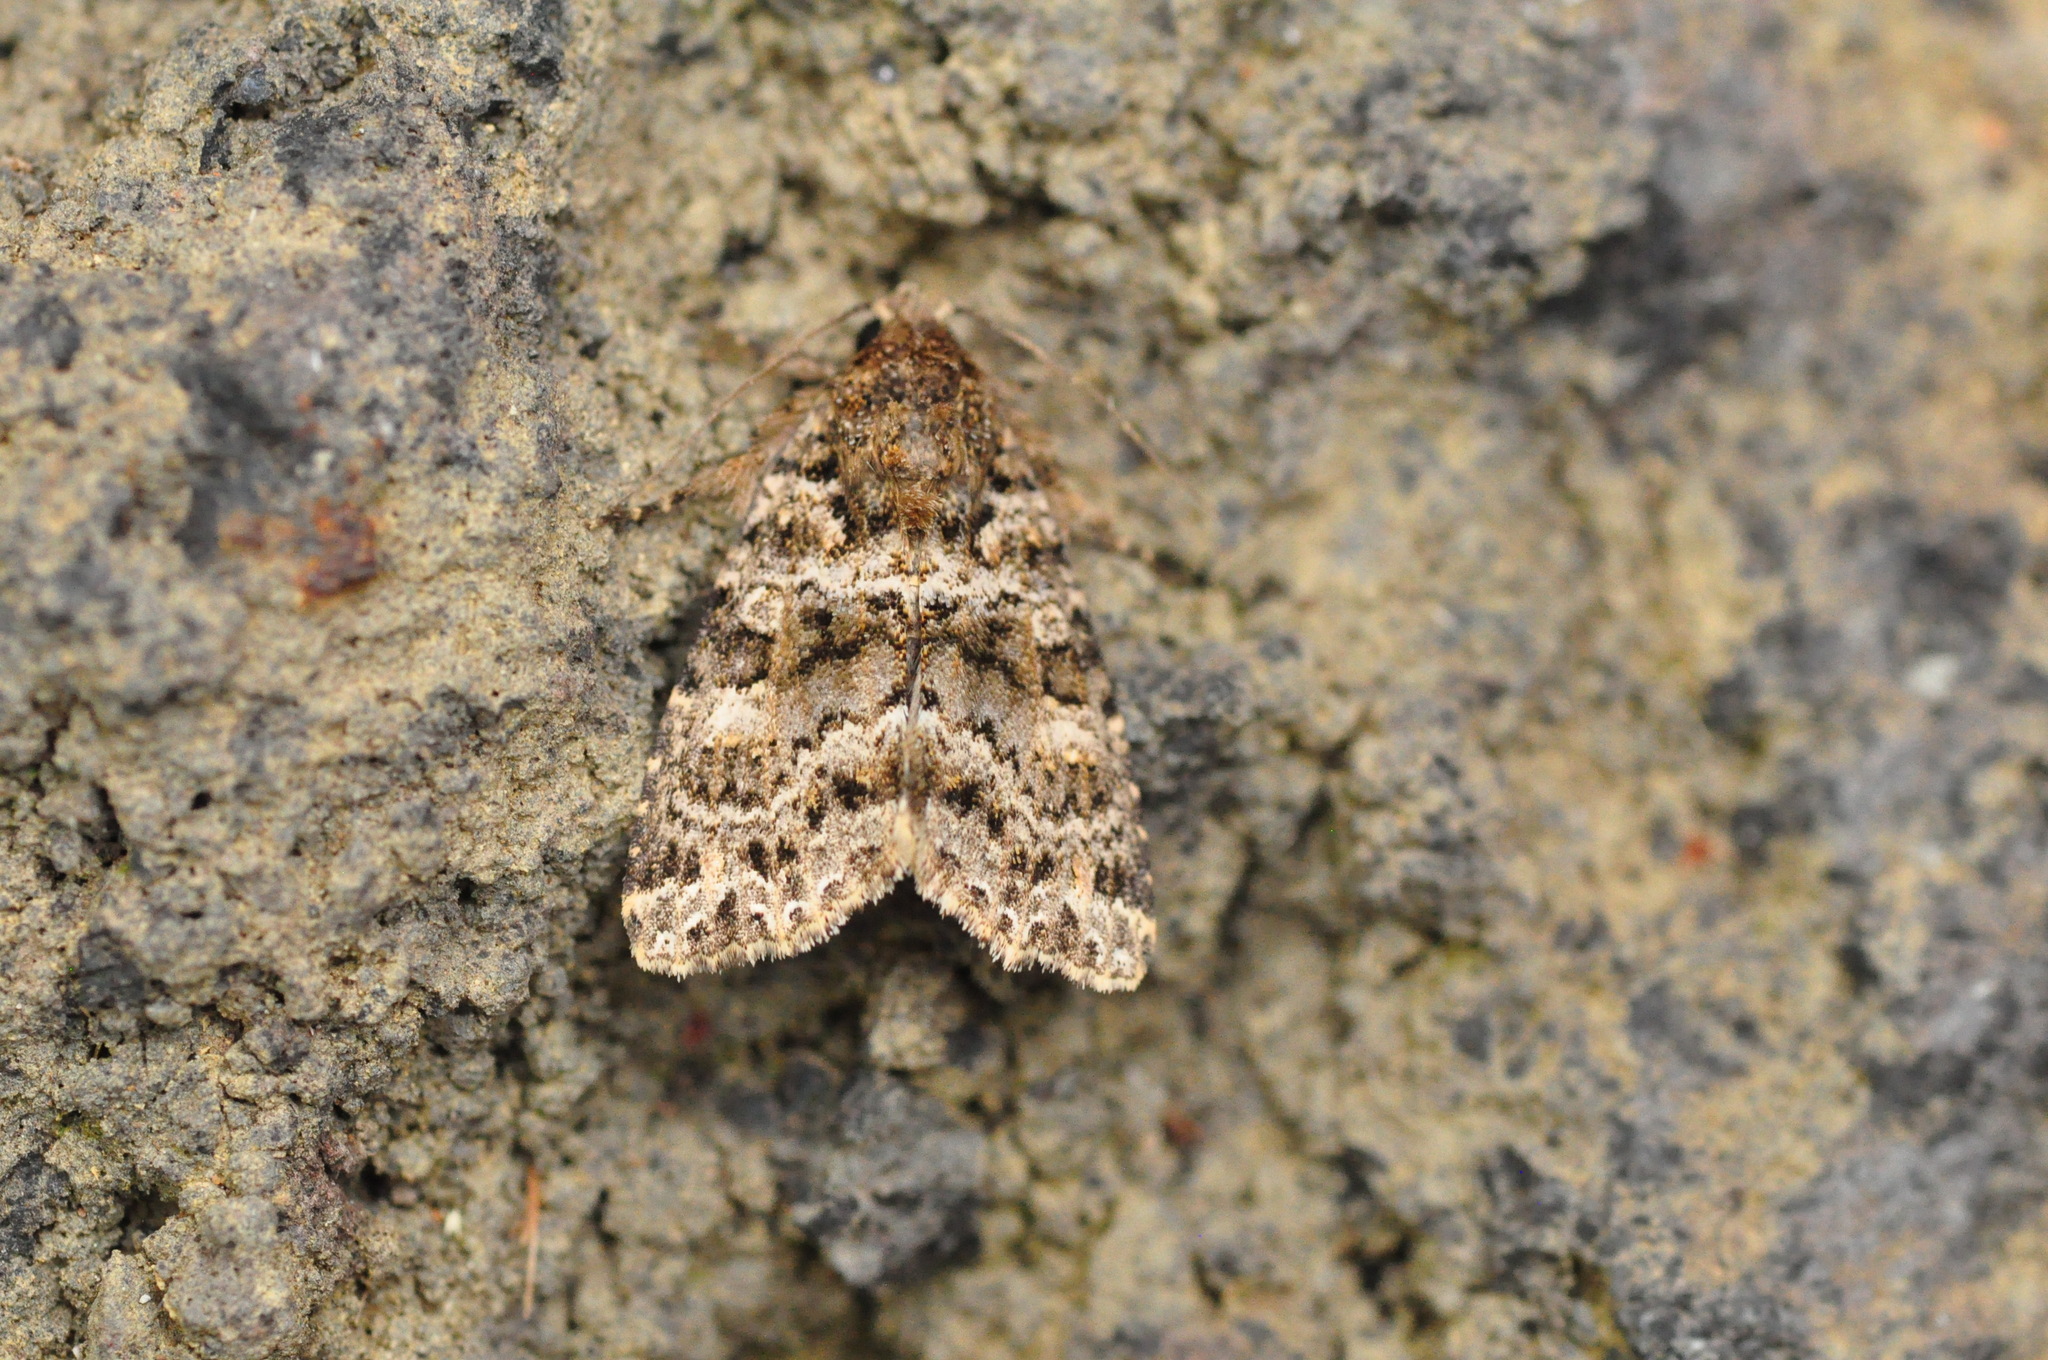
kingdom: Animalia
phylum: Arthropoda
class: Insecta
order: Lepidoptera
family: Noctuidae
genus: Callopistria
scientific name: Callopistria latreillei
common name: Latreille's latin
